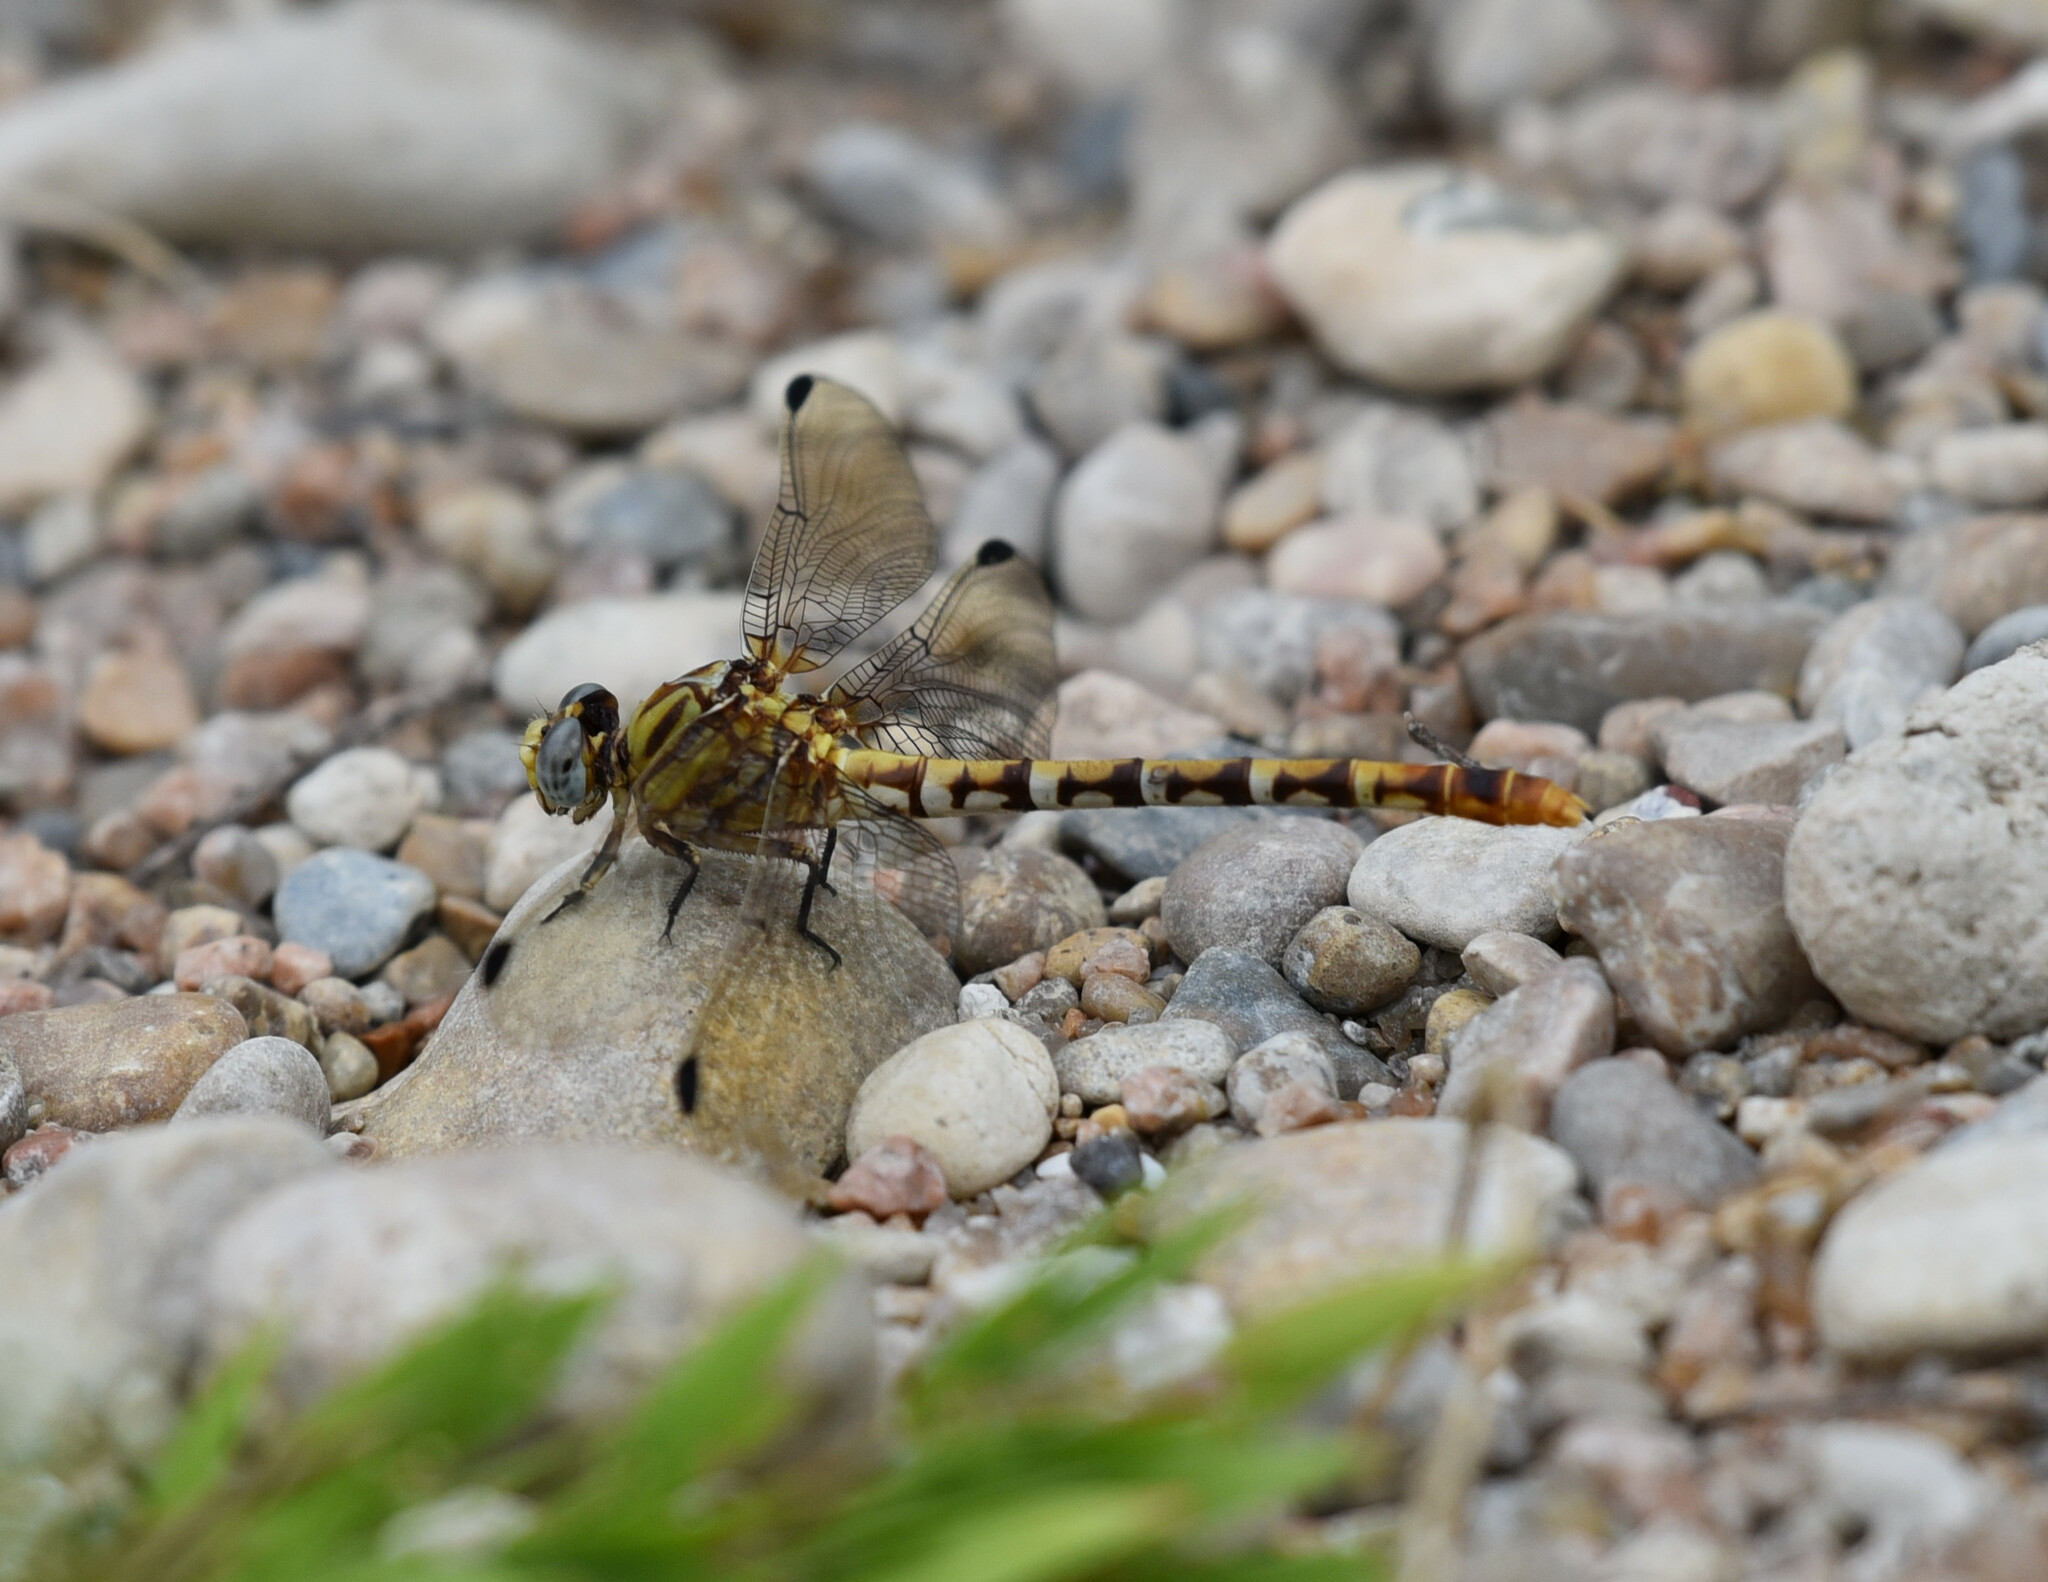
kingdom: Animalia
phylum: Arthropoda
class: Insecta
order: Odonata
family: Gomphidae
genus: Erpetogomphus
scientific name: Erpetogomphus designatus
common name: Eastern ringtail
